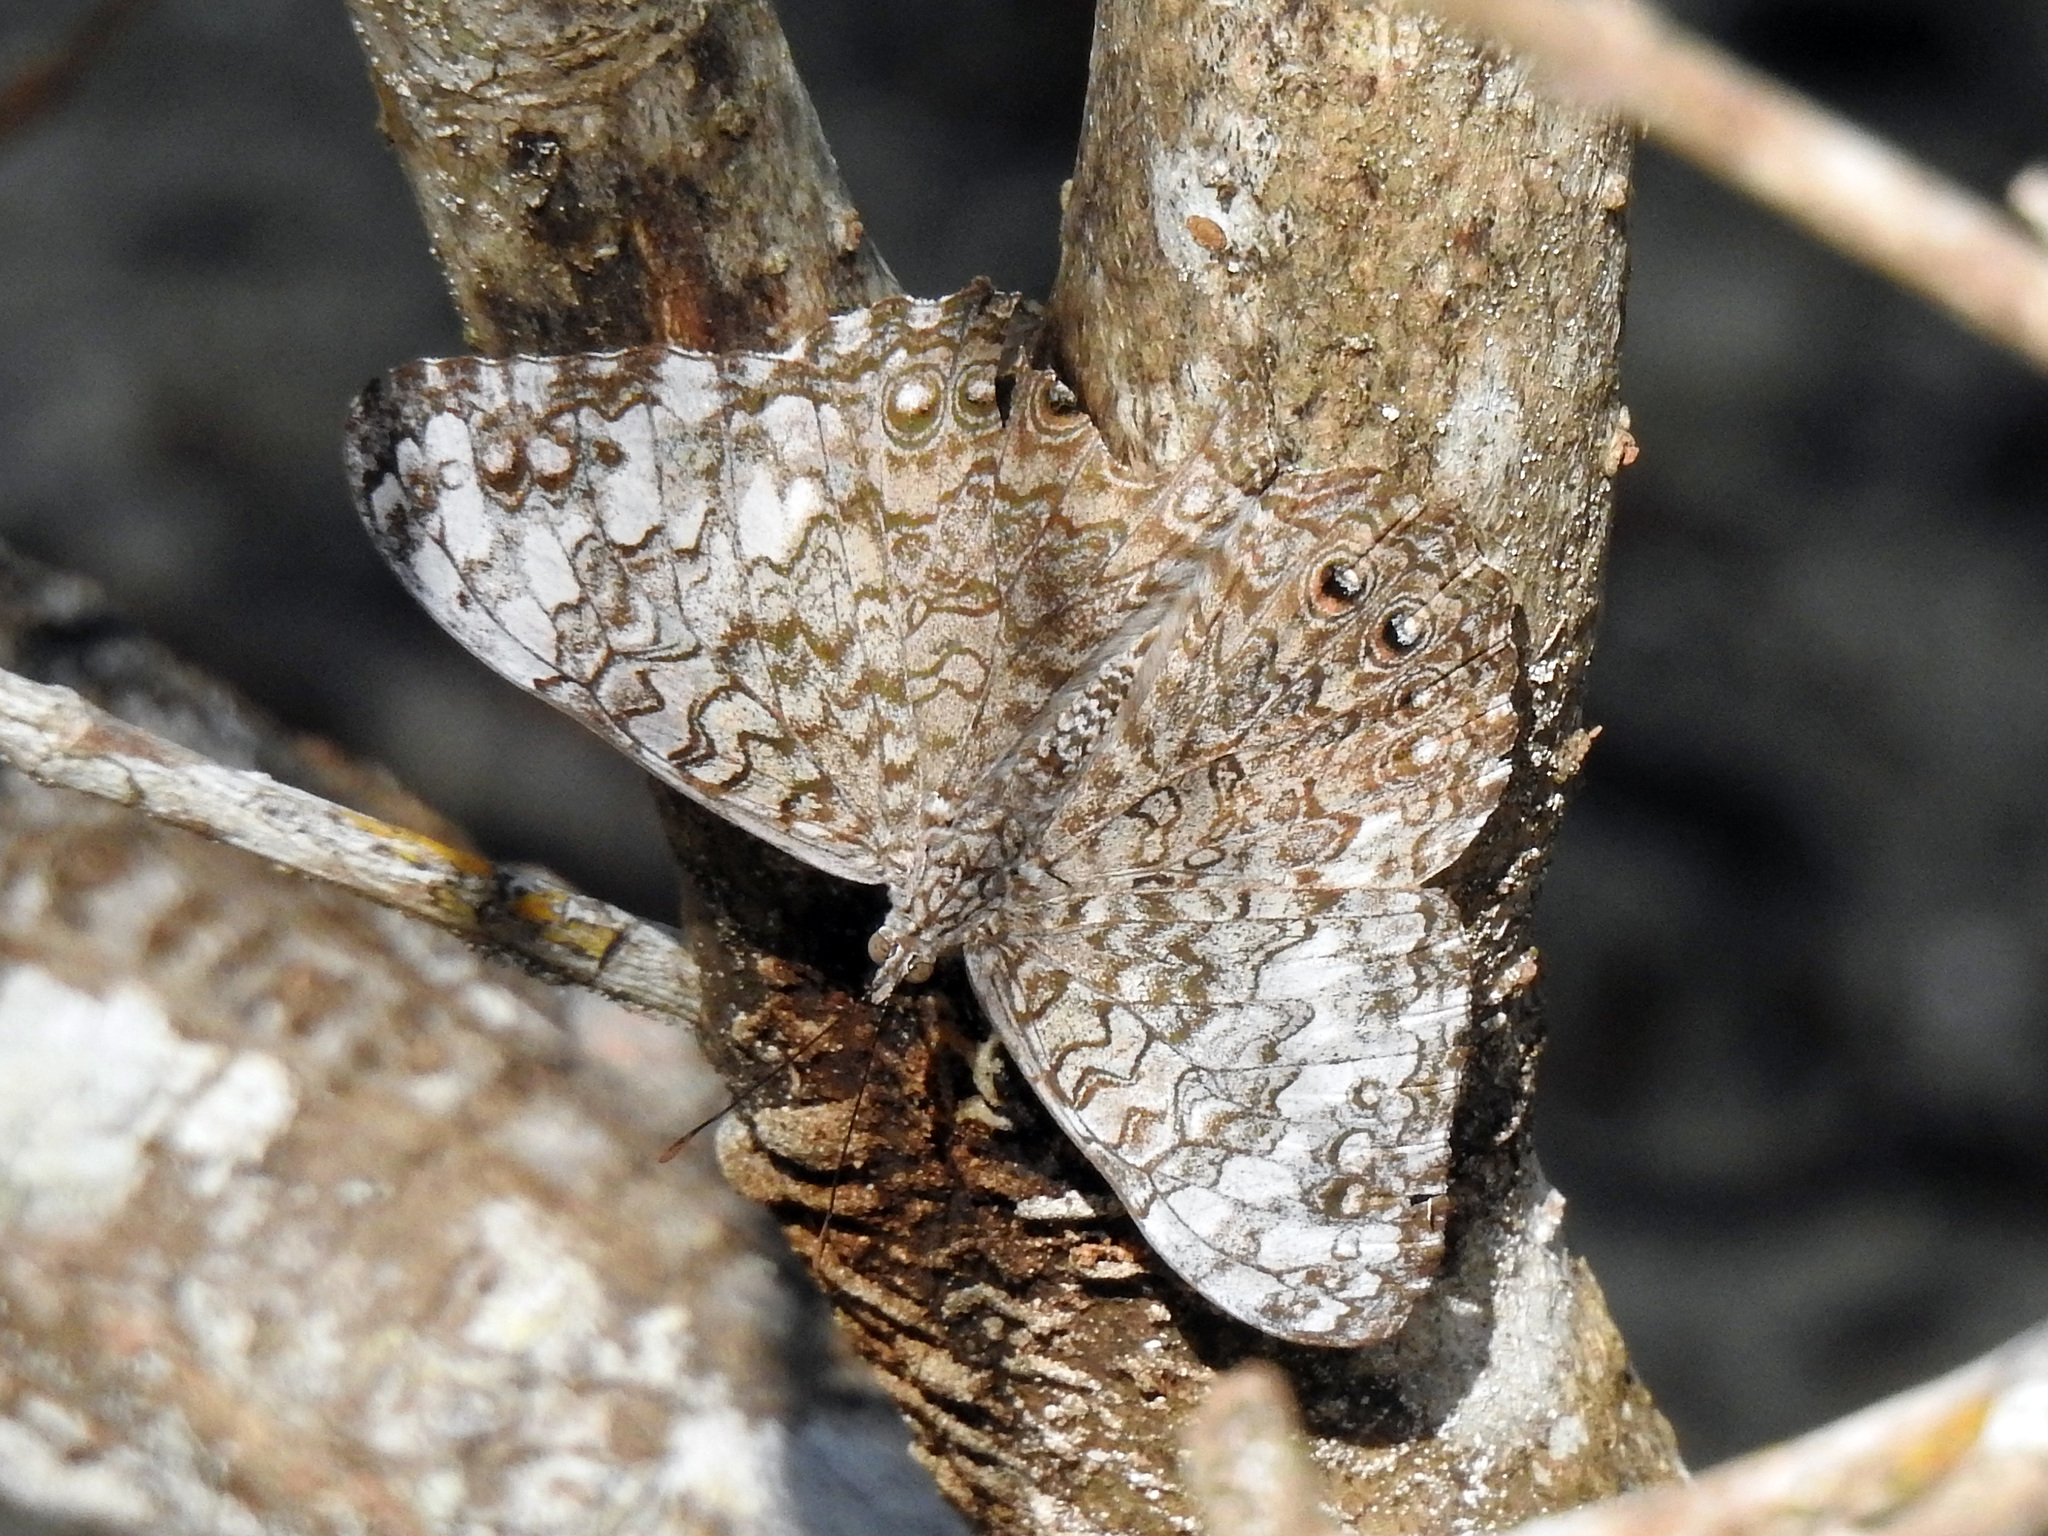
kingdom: Animalia
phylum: Arthropoda
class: Insecta
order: Lepidoptera
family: Nymphalidae
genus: Hamadryas
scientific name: Hamadryas februa
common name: Gray cracker
